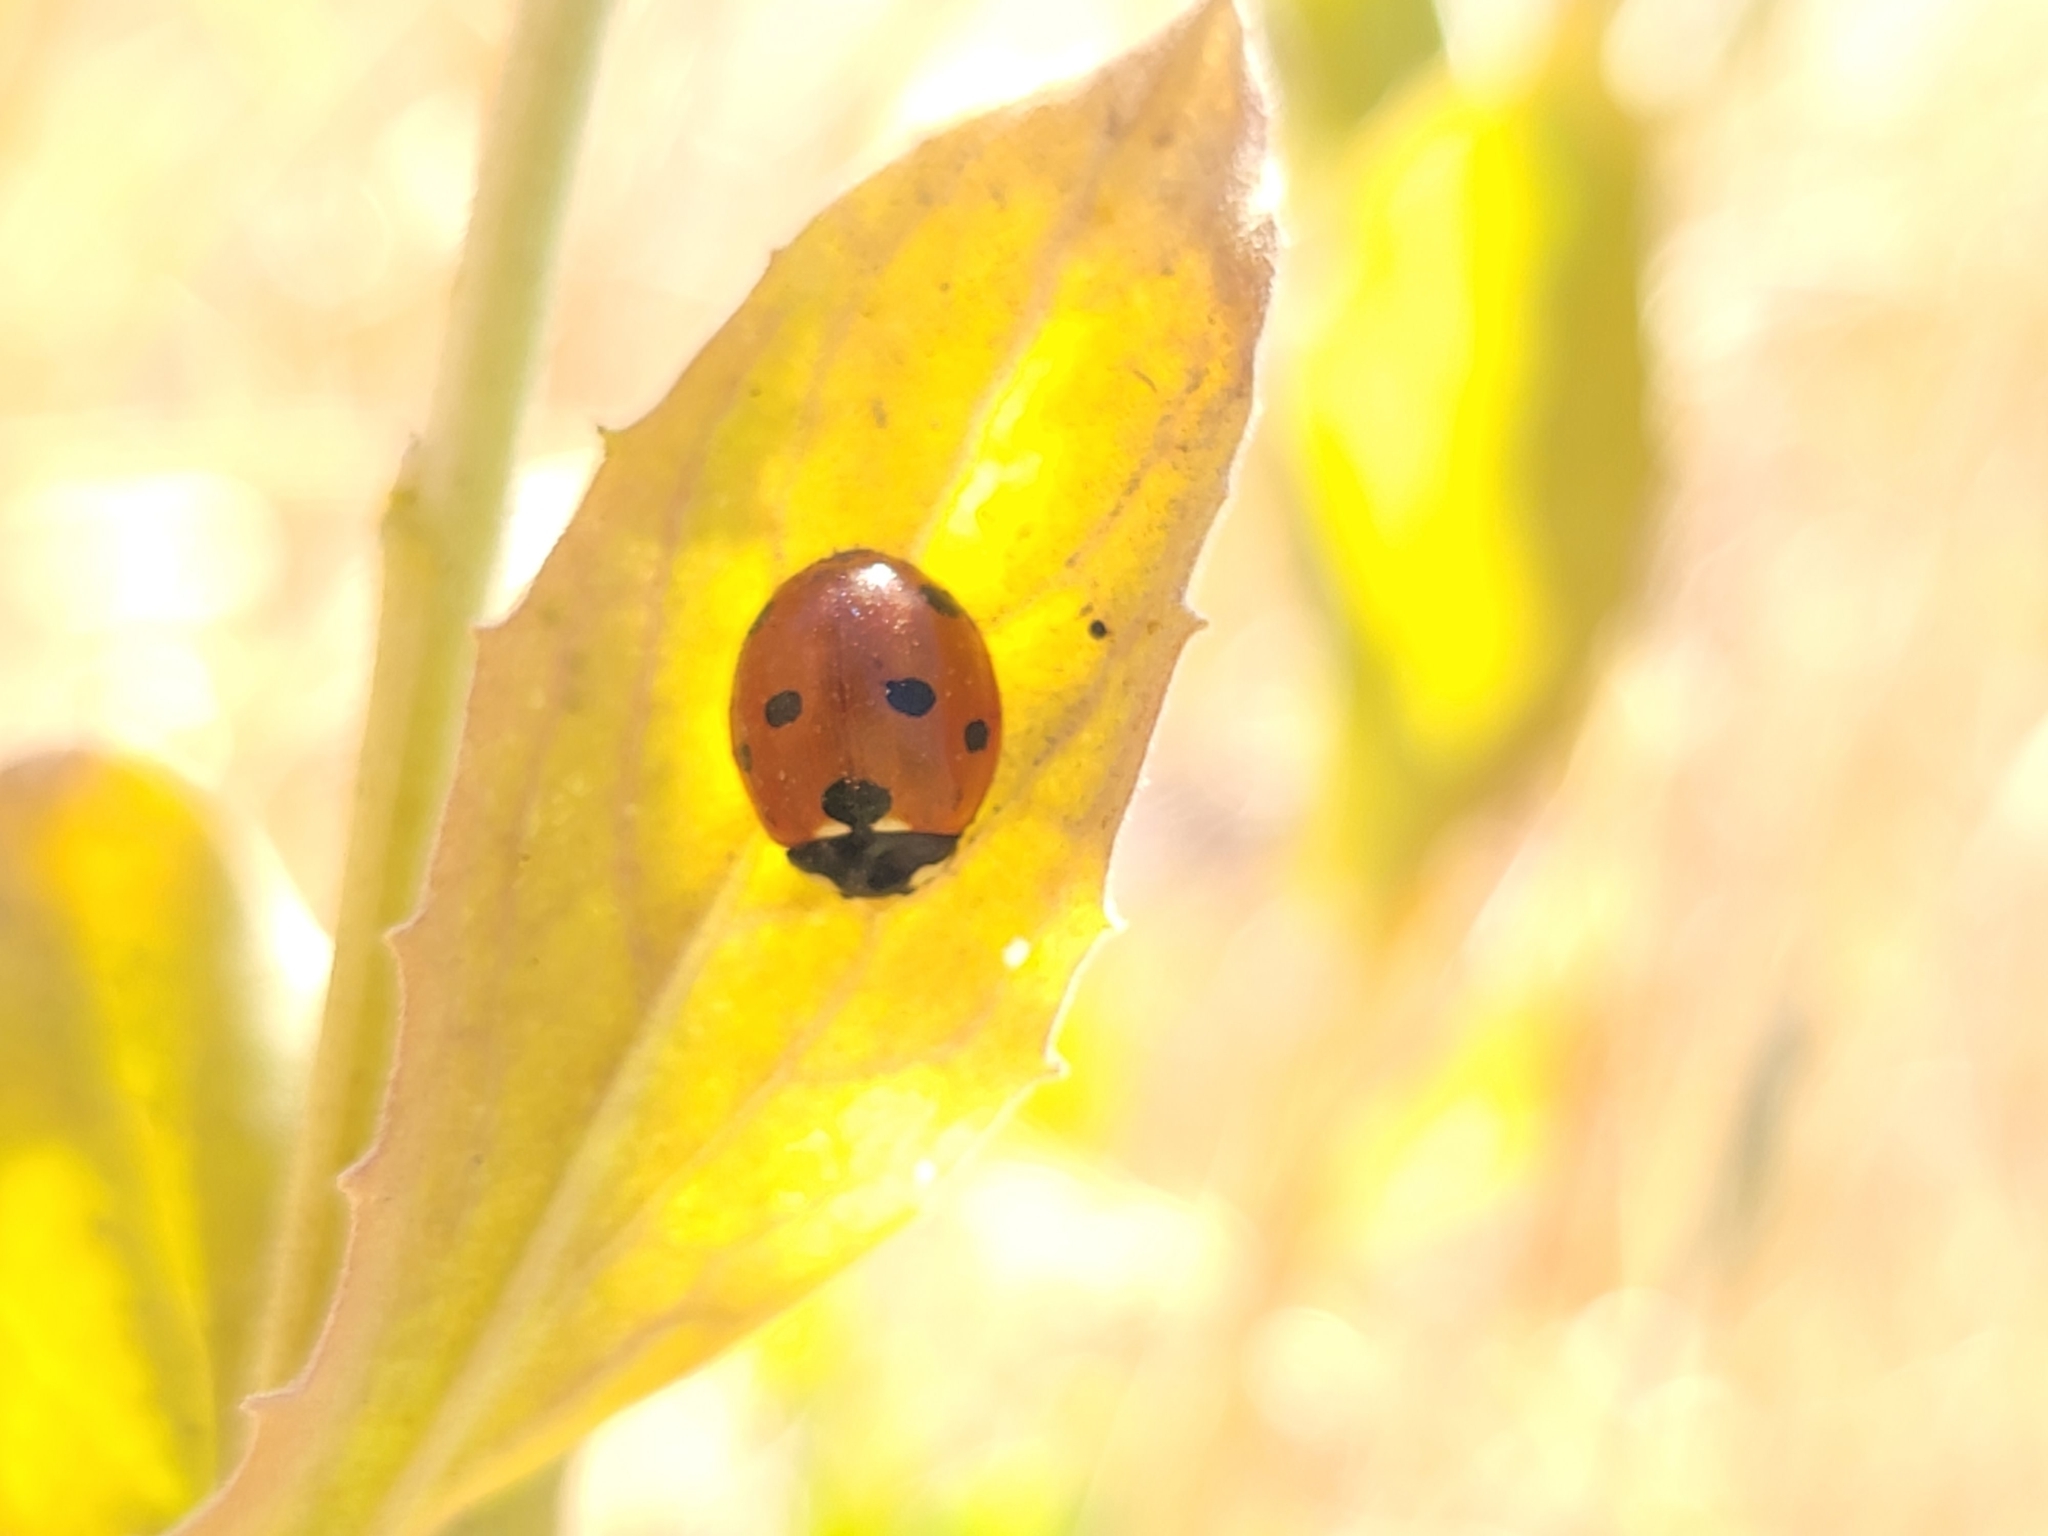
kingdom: Animalia
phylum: Arthropoda
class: Insecta
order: Coleoptera
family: Coccinellidae
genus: Coccinella
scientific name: Coccinella septempunctata
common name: Sevenspotted lady beetle
